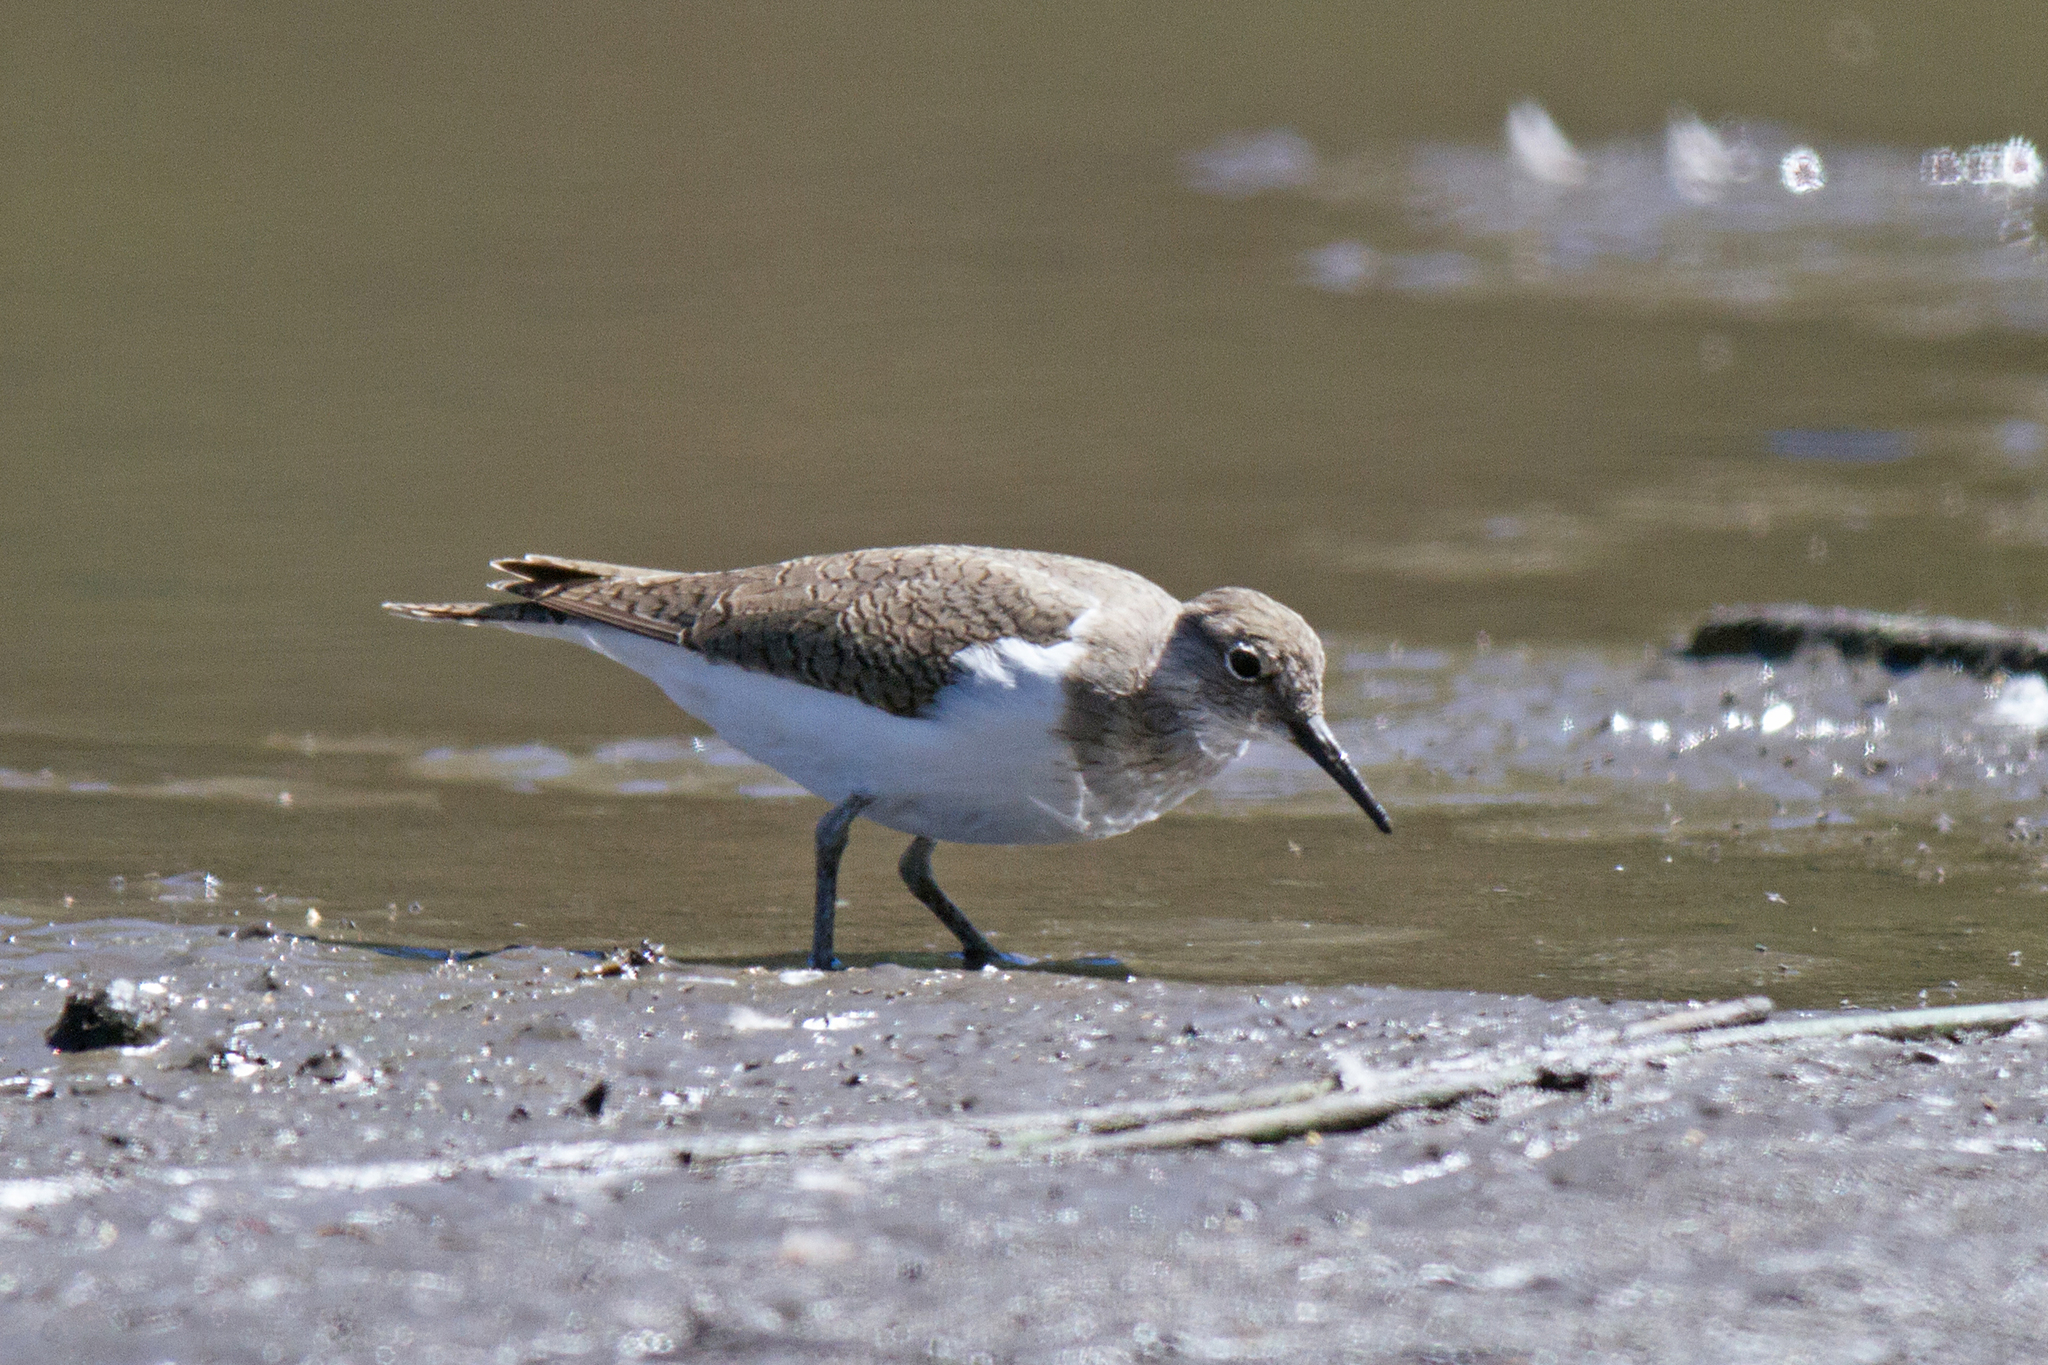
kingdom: Animalia
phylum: Chordata
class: Aves
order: Charadriiformes
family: Scolopacidae
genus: Actitis
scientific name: Actitis hypoleucos
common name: Common sandpiper
